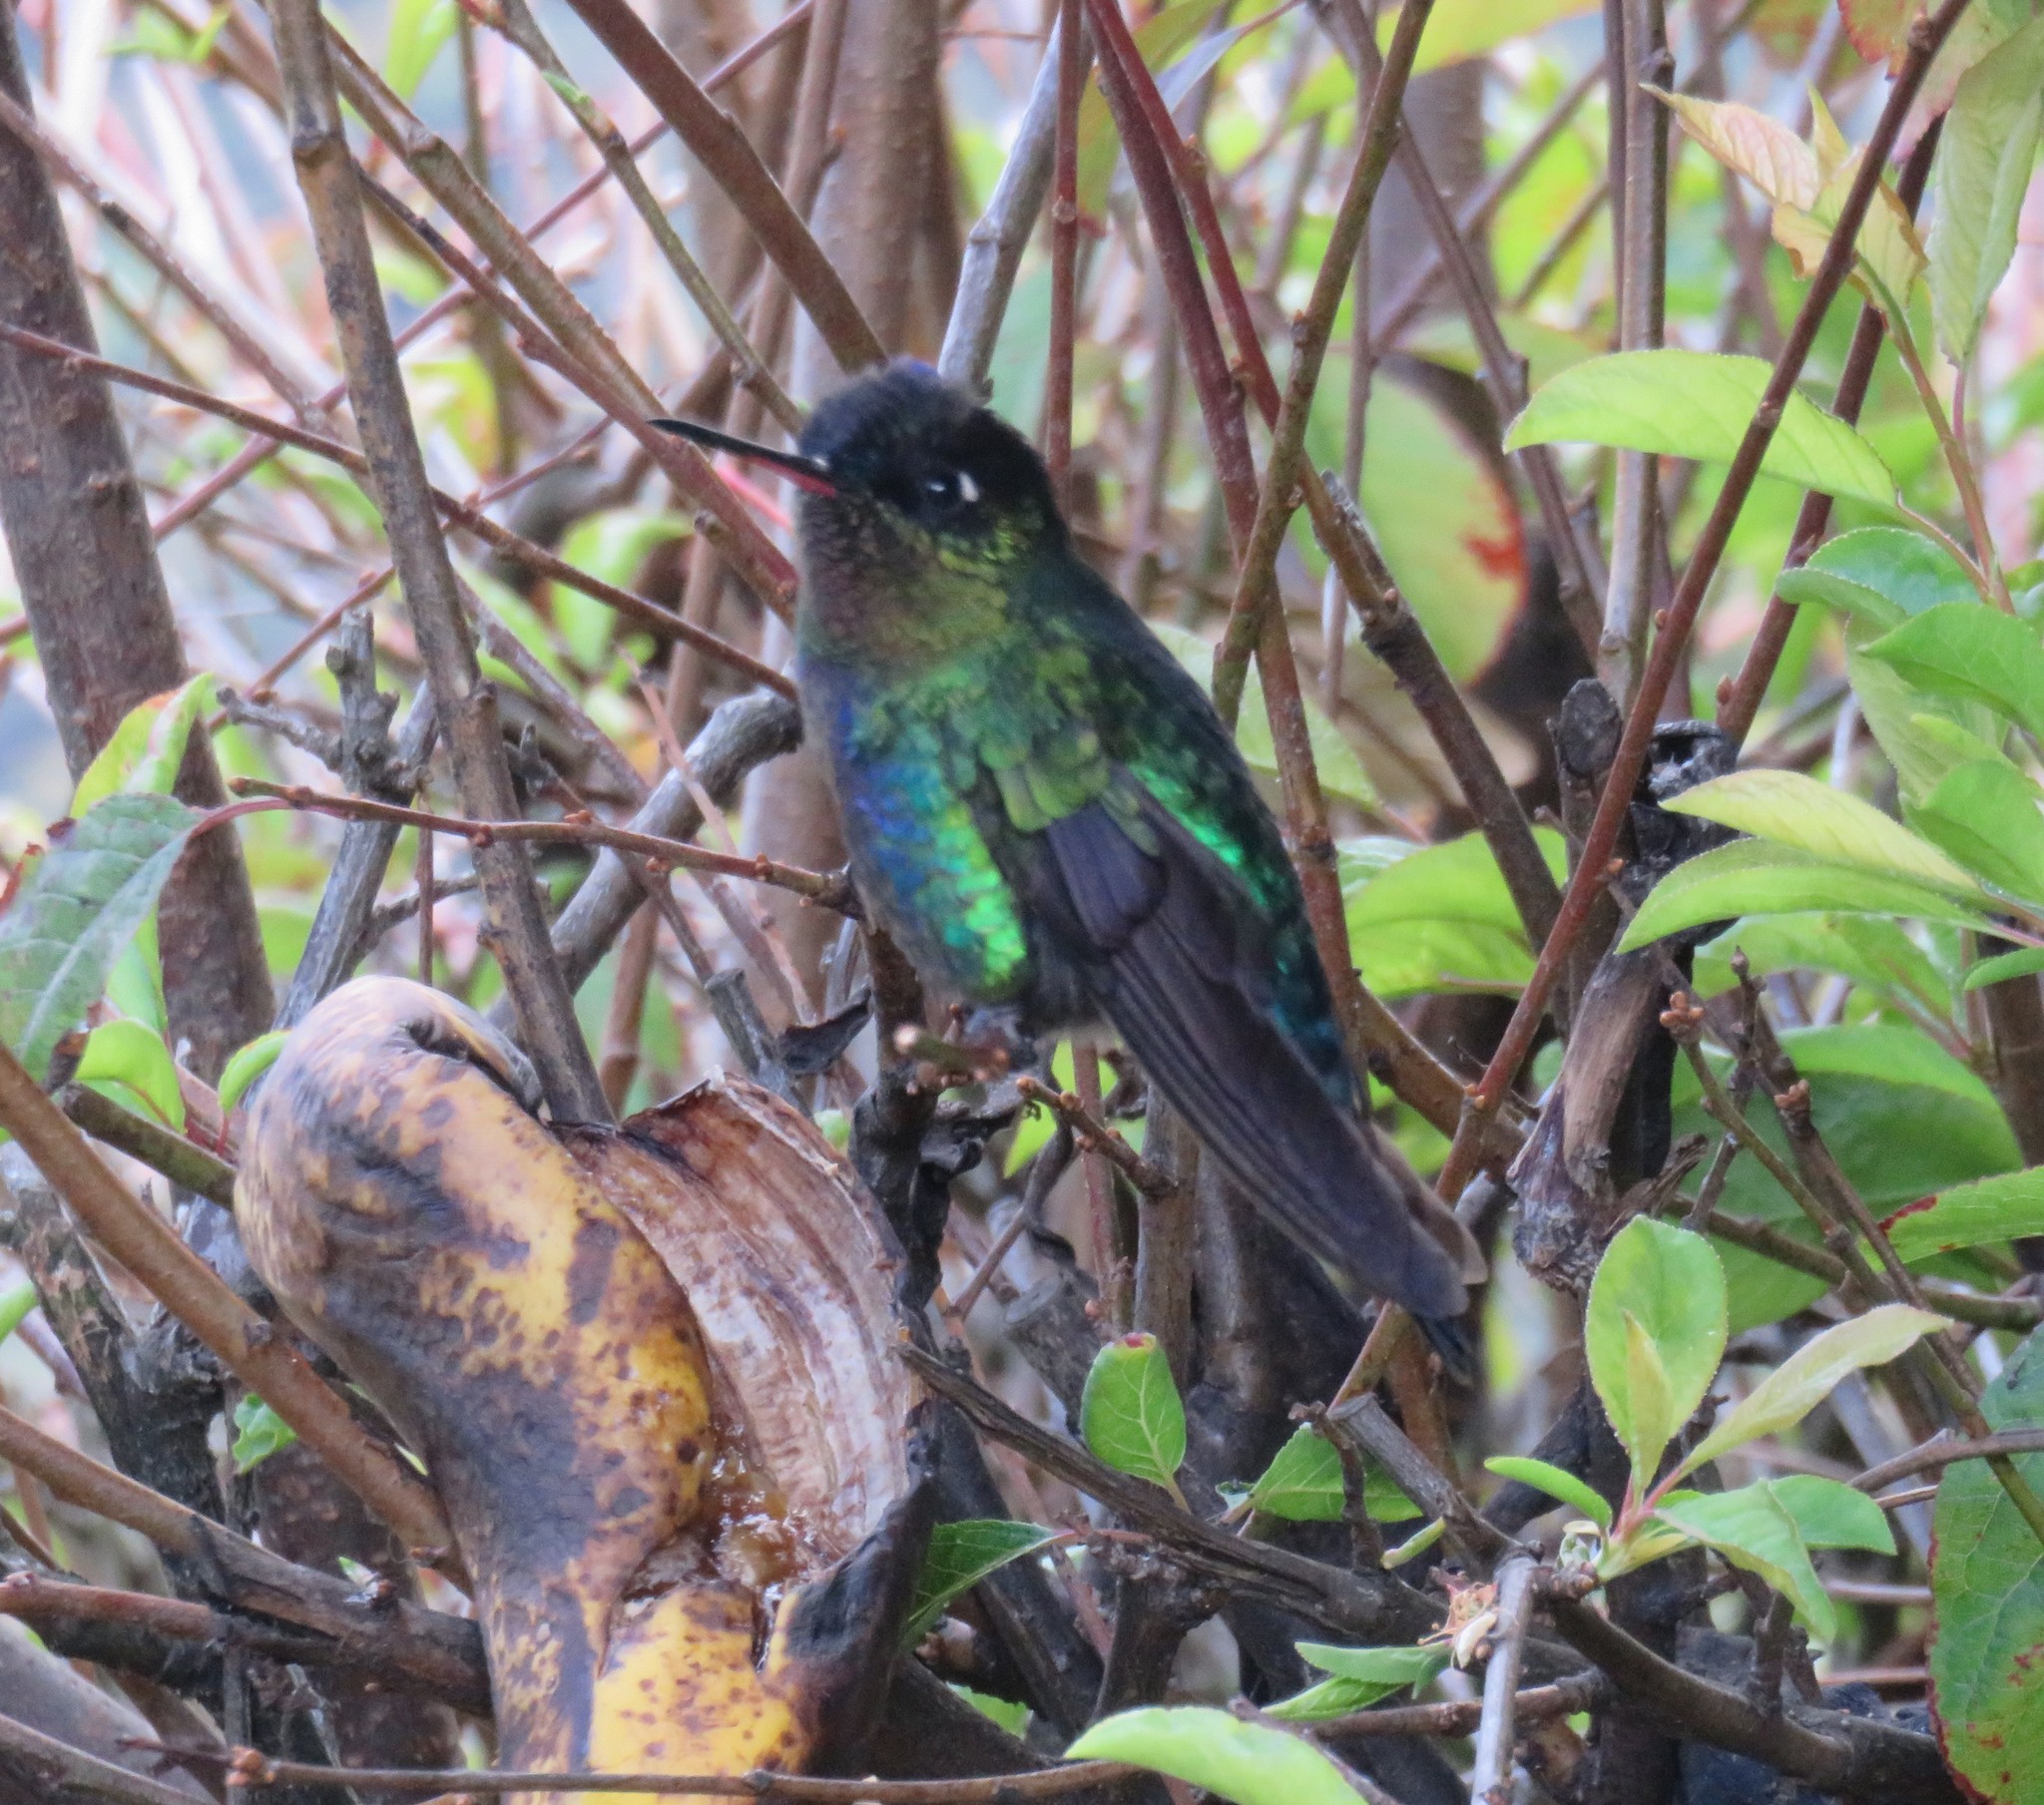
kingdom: Animalia
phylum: Chordata
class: Aves
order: Apodiformes
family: Trochilidae
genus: Panterpe
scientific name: Panterpe insignis
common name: Fiery-throated hummingbird
